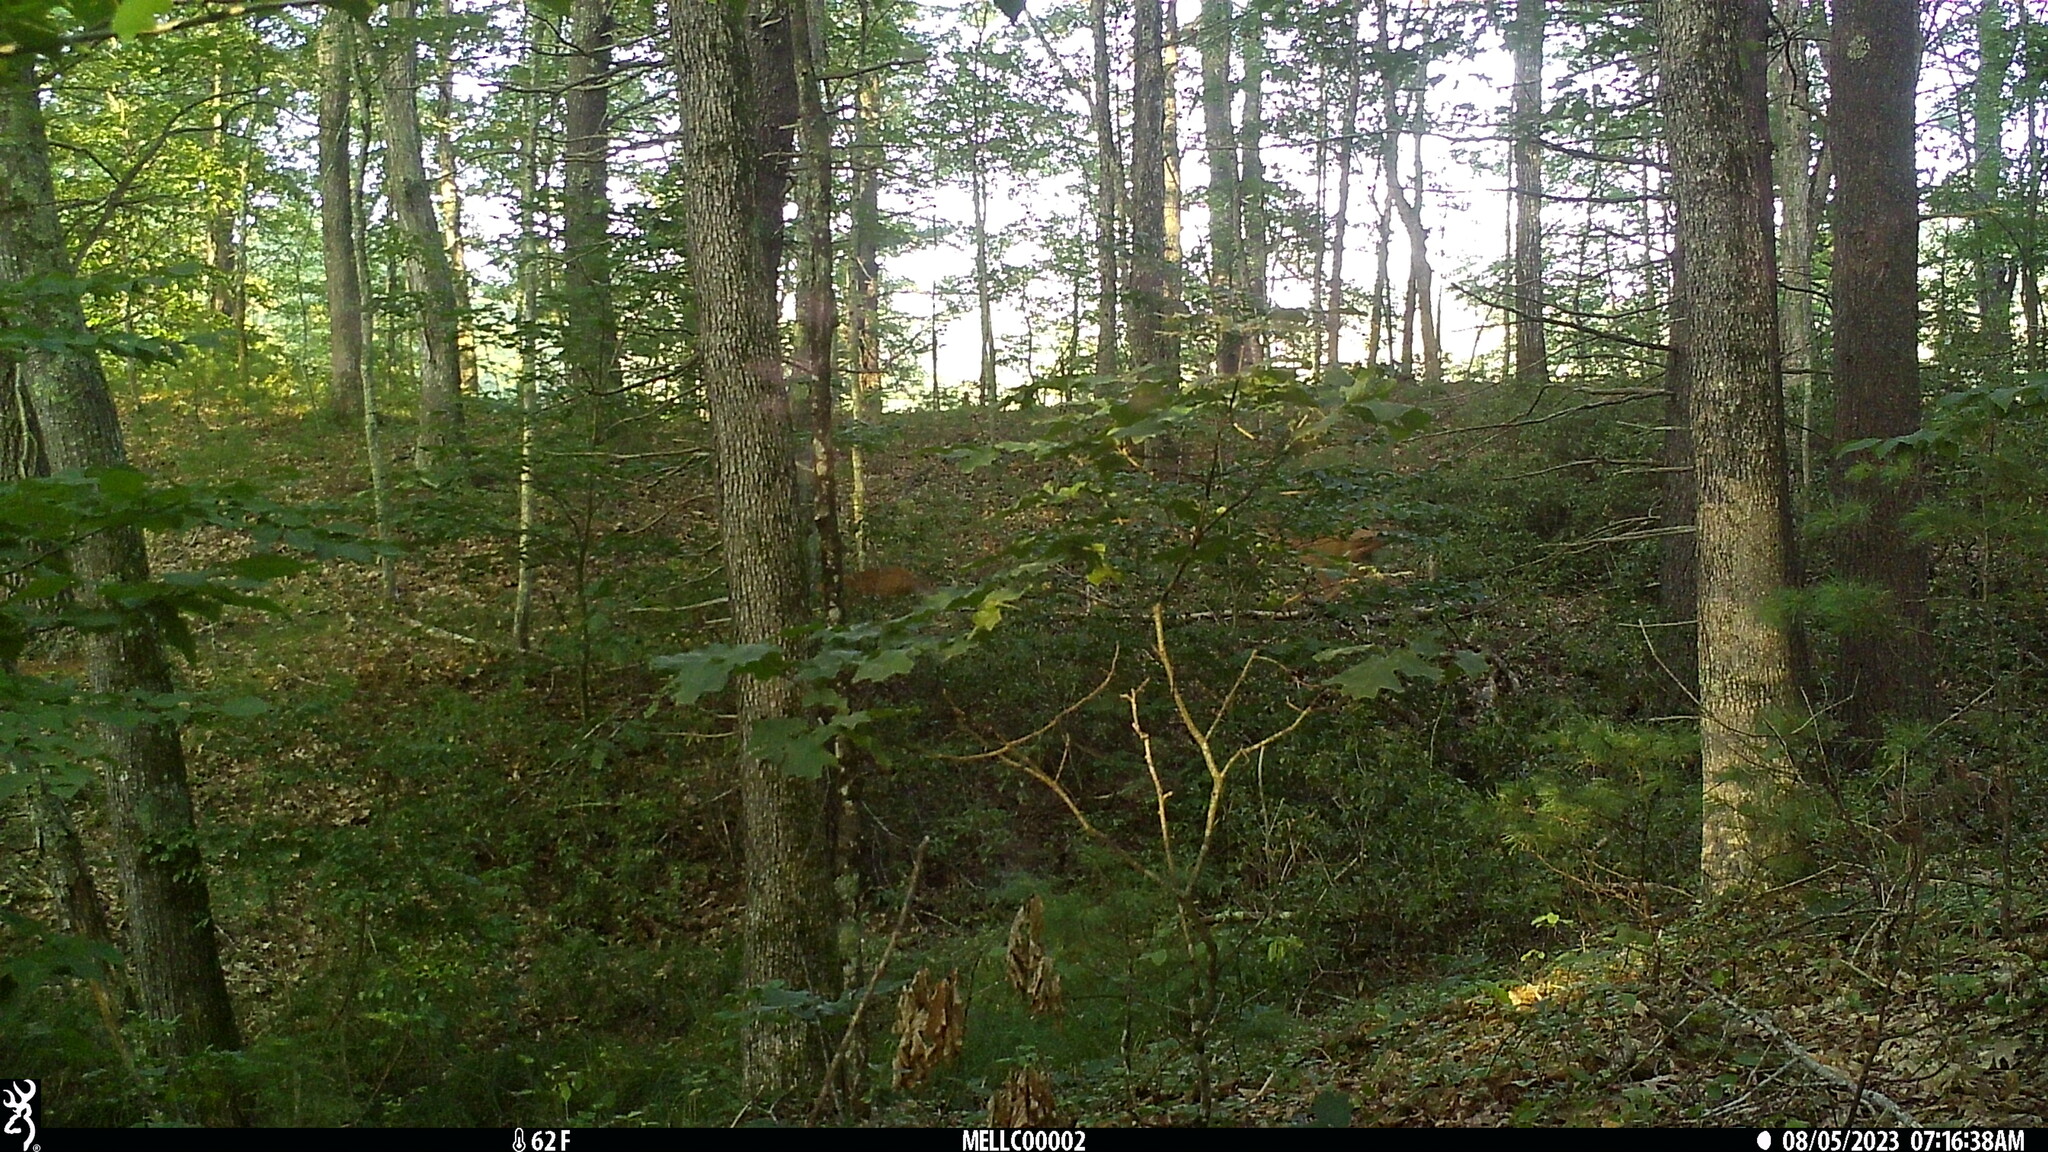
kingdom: Animalia
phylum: Chordata
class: Mammalia
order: Artiodactyla
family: Cervidae
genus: Odocoileus
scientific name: Odocoileus virginianus
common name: White-tailed deer
